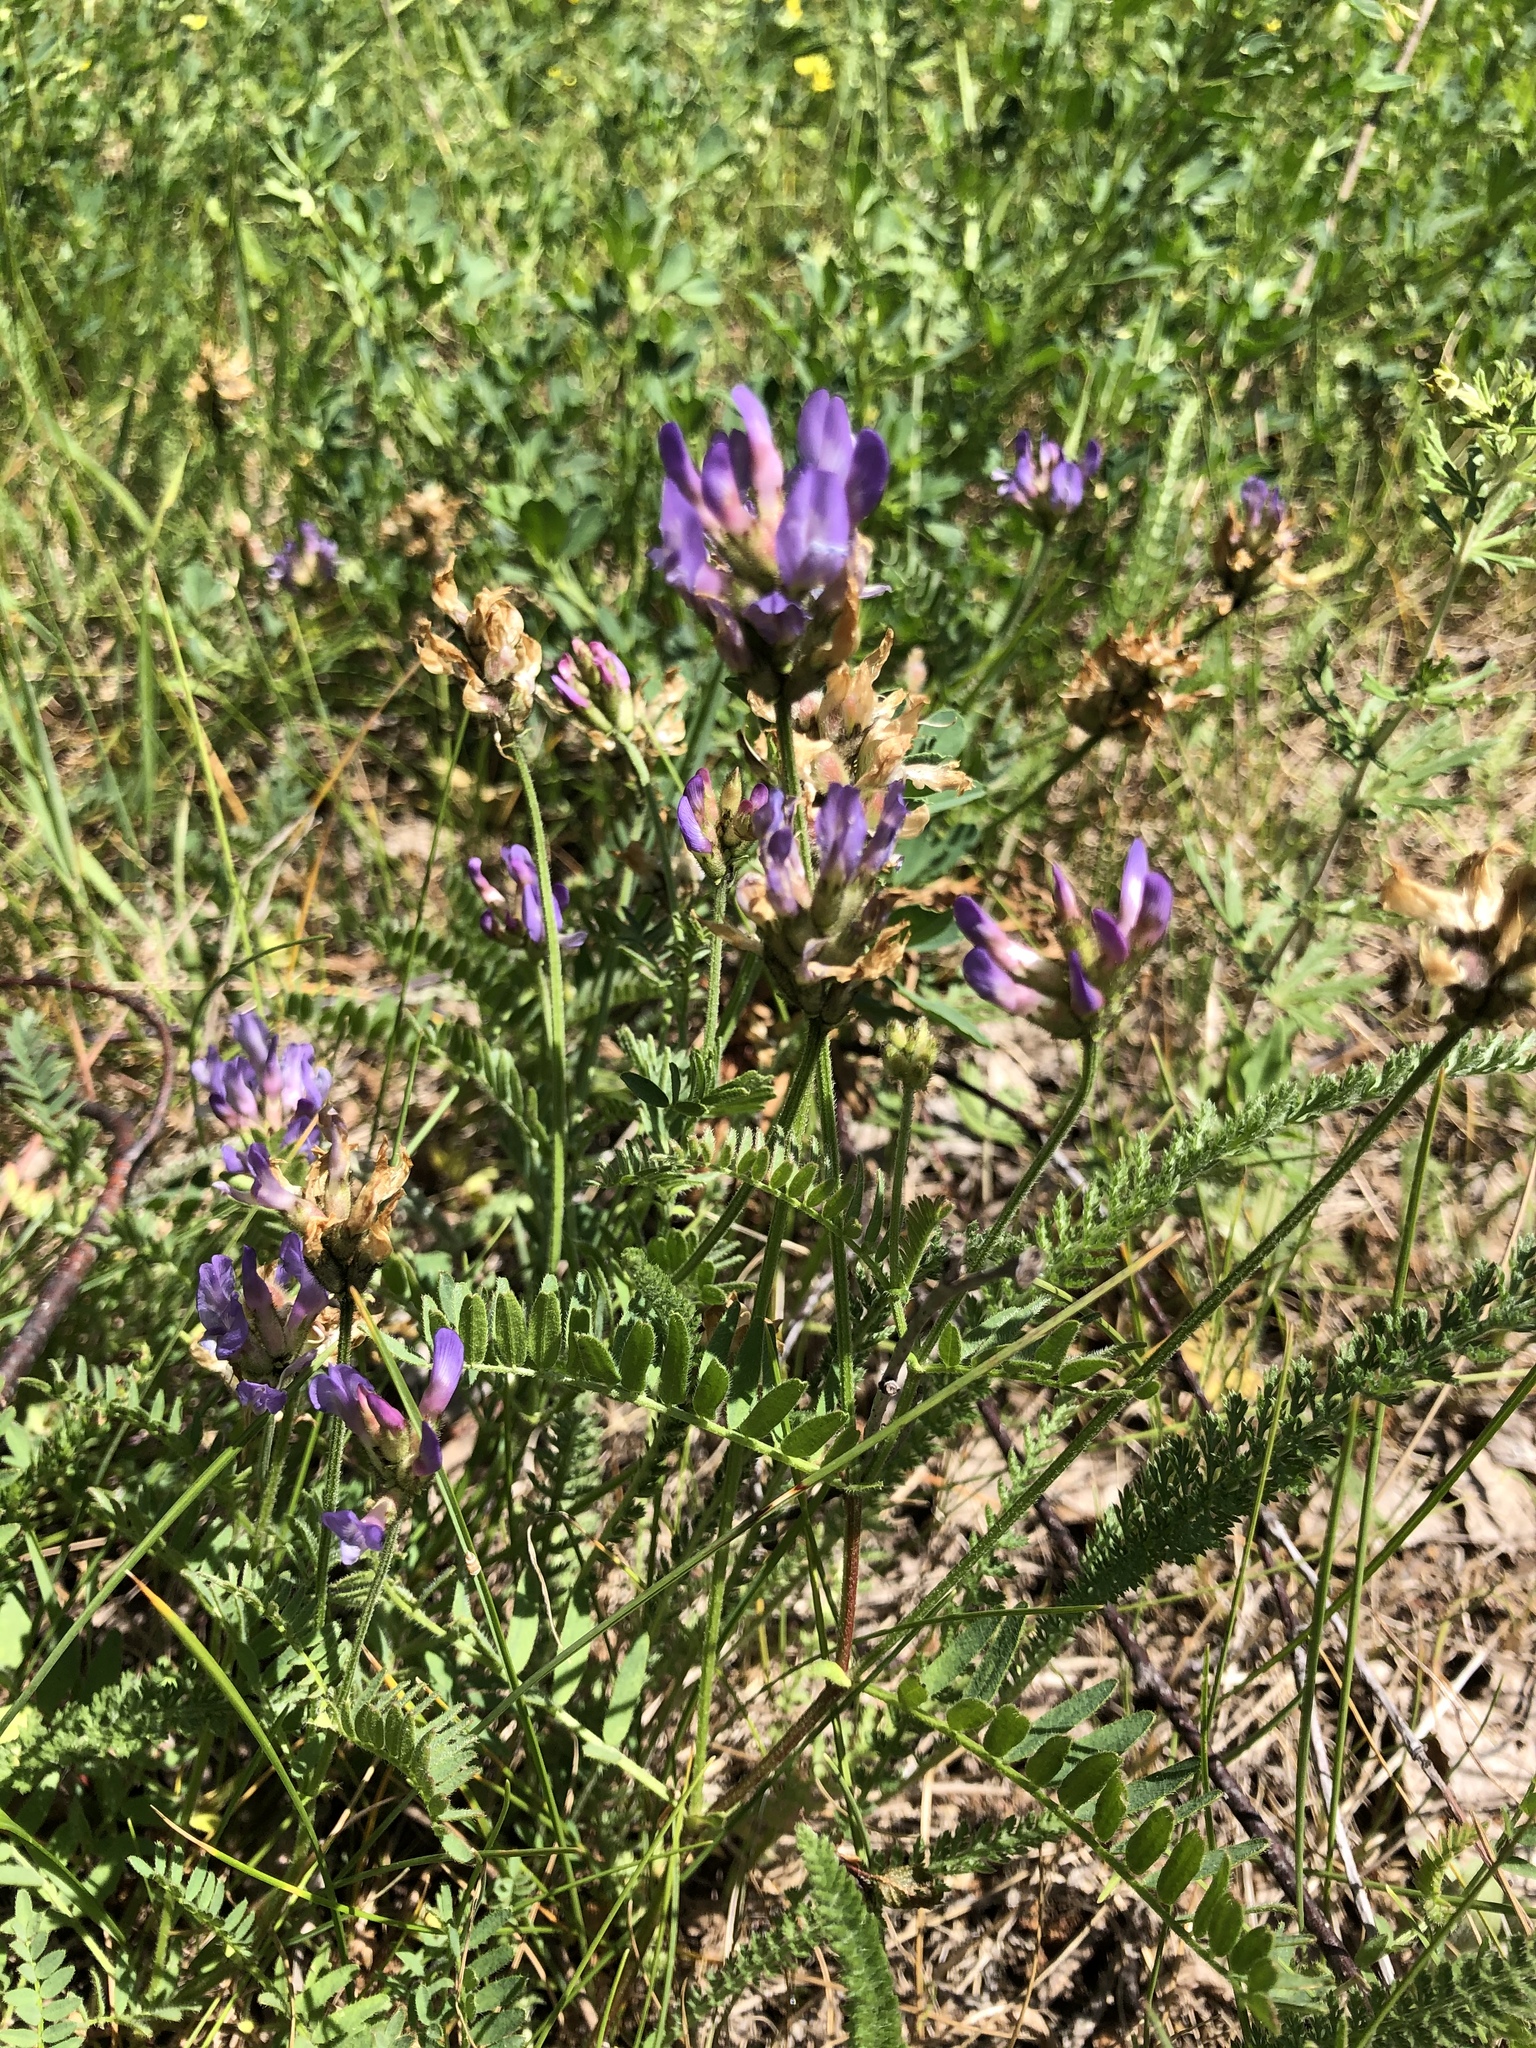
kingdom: Plantae
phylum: Tracheophyta
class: Magnoliopsida
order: Fabales
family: Fabaceae
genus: Astragalus
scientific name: Astragalus danicus
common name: Purple milk-vetch
